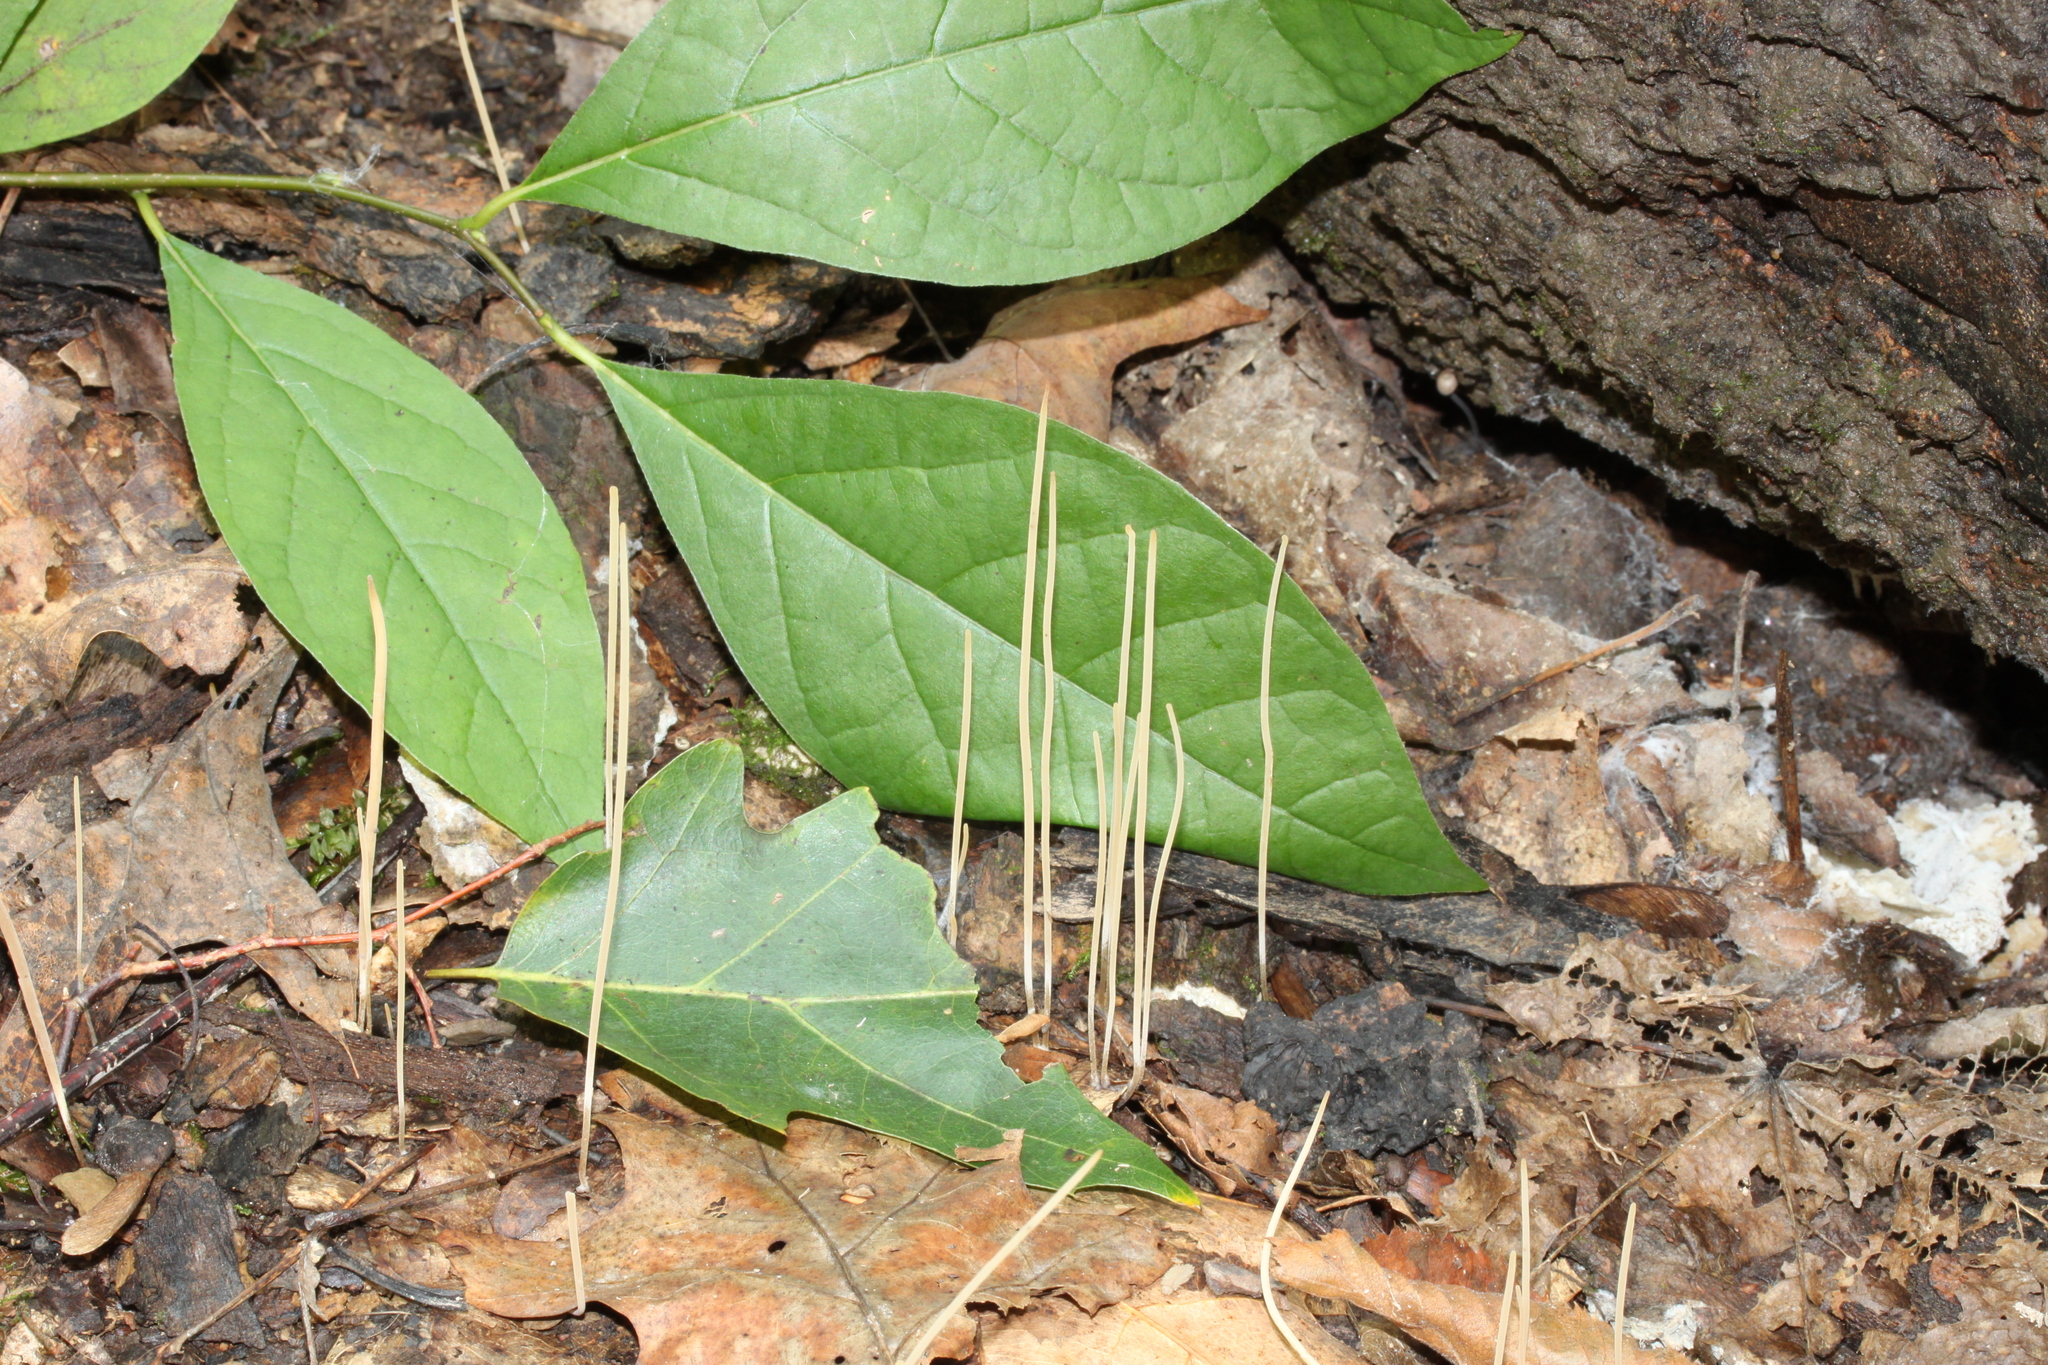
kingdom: Fungi
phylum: Basidiomycota
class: Agaricomycetes
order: Agaricales
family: Typhulaceae
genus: Typhula
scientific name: Typhula juncea
